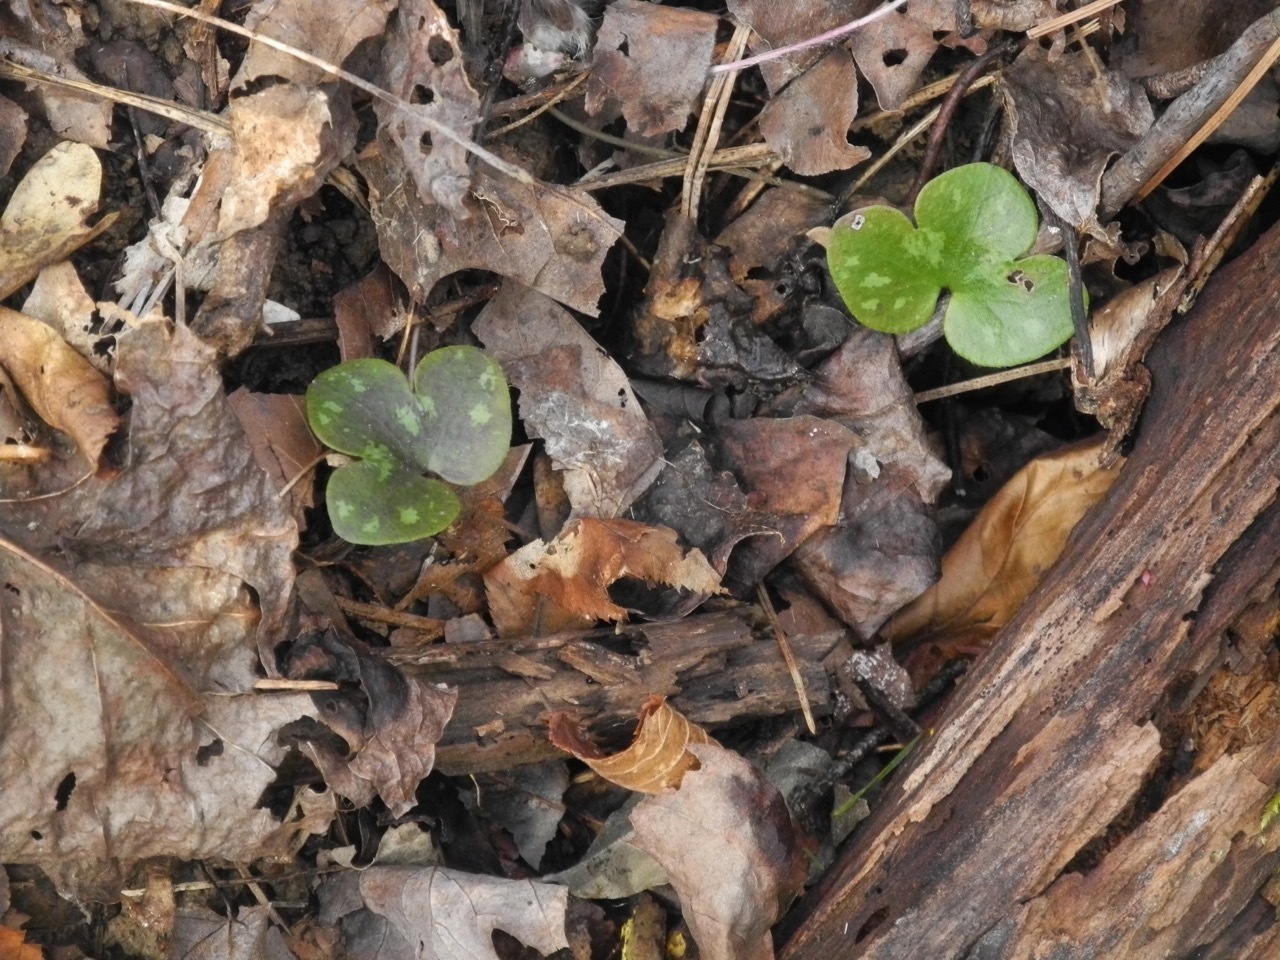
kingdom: Plantae
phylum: Tracheophyta
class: Magnoliopsida
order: Ranunculales
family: Ranunculaceae
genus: Hepatica
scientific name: Hepatica americana
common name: American hepatica
